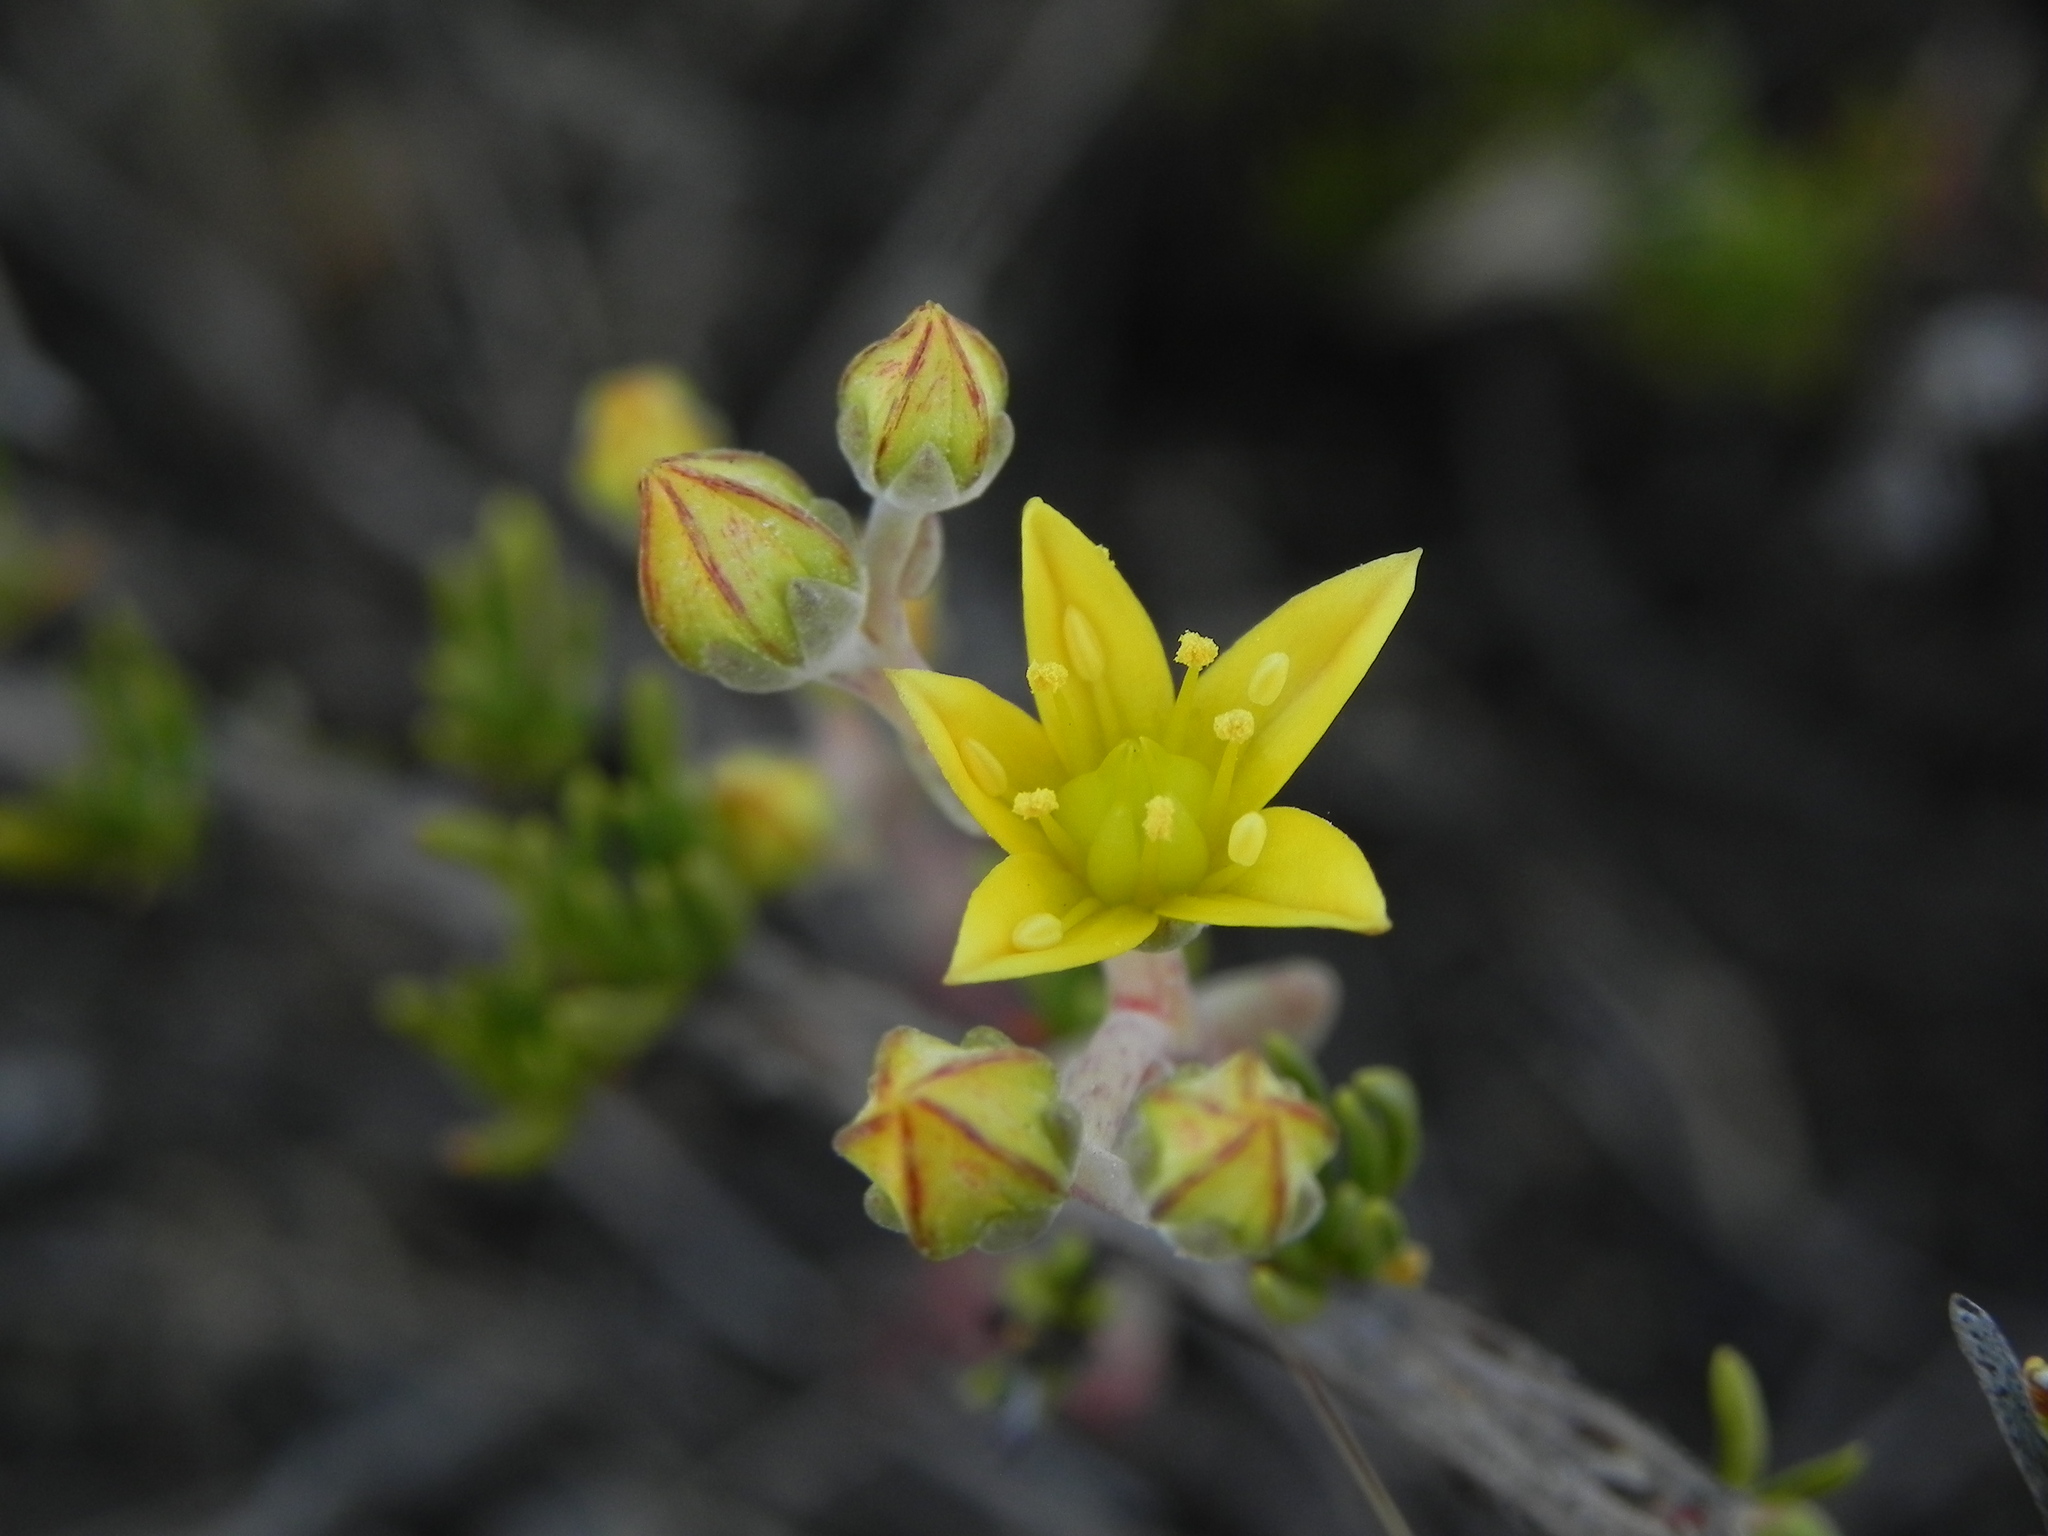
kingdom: Plantae
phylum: Tracheophyta
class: Magnoliopsida
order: Saxifragales
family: Crassulaceae
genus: Dudleya
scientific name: Dudleya variegata
